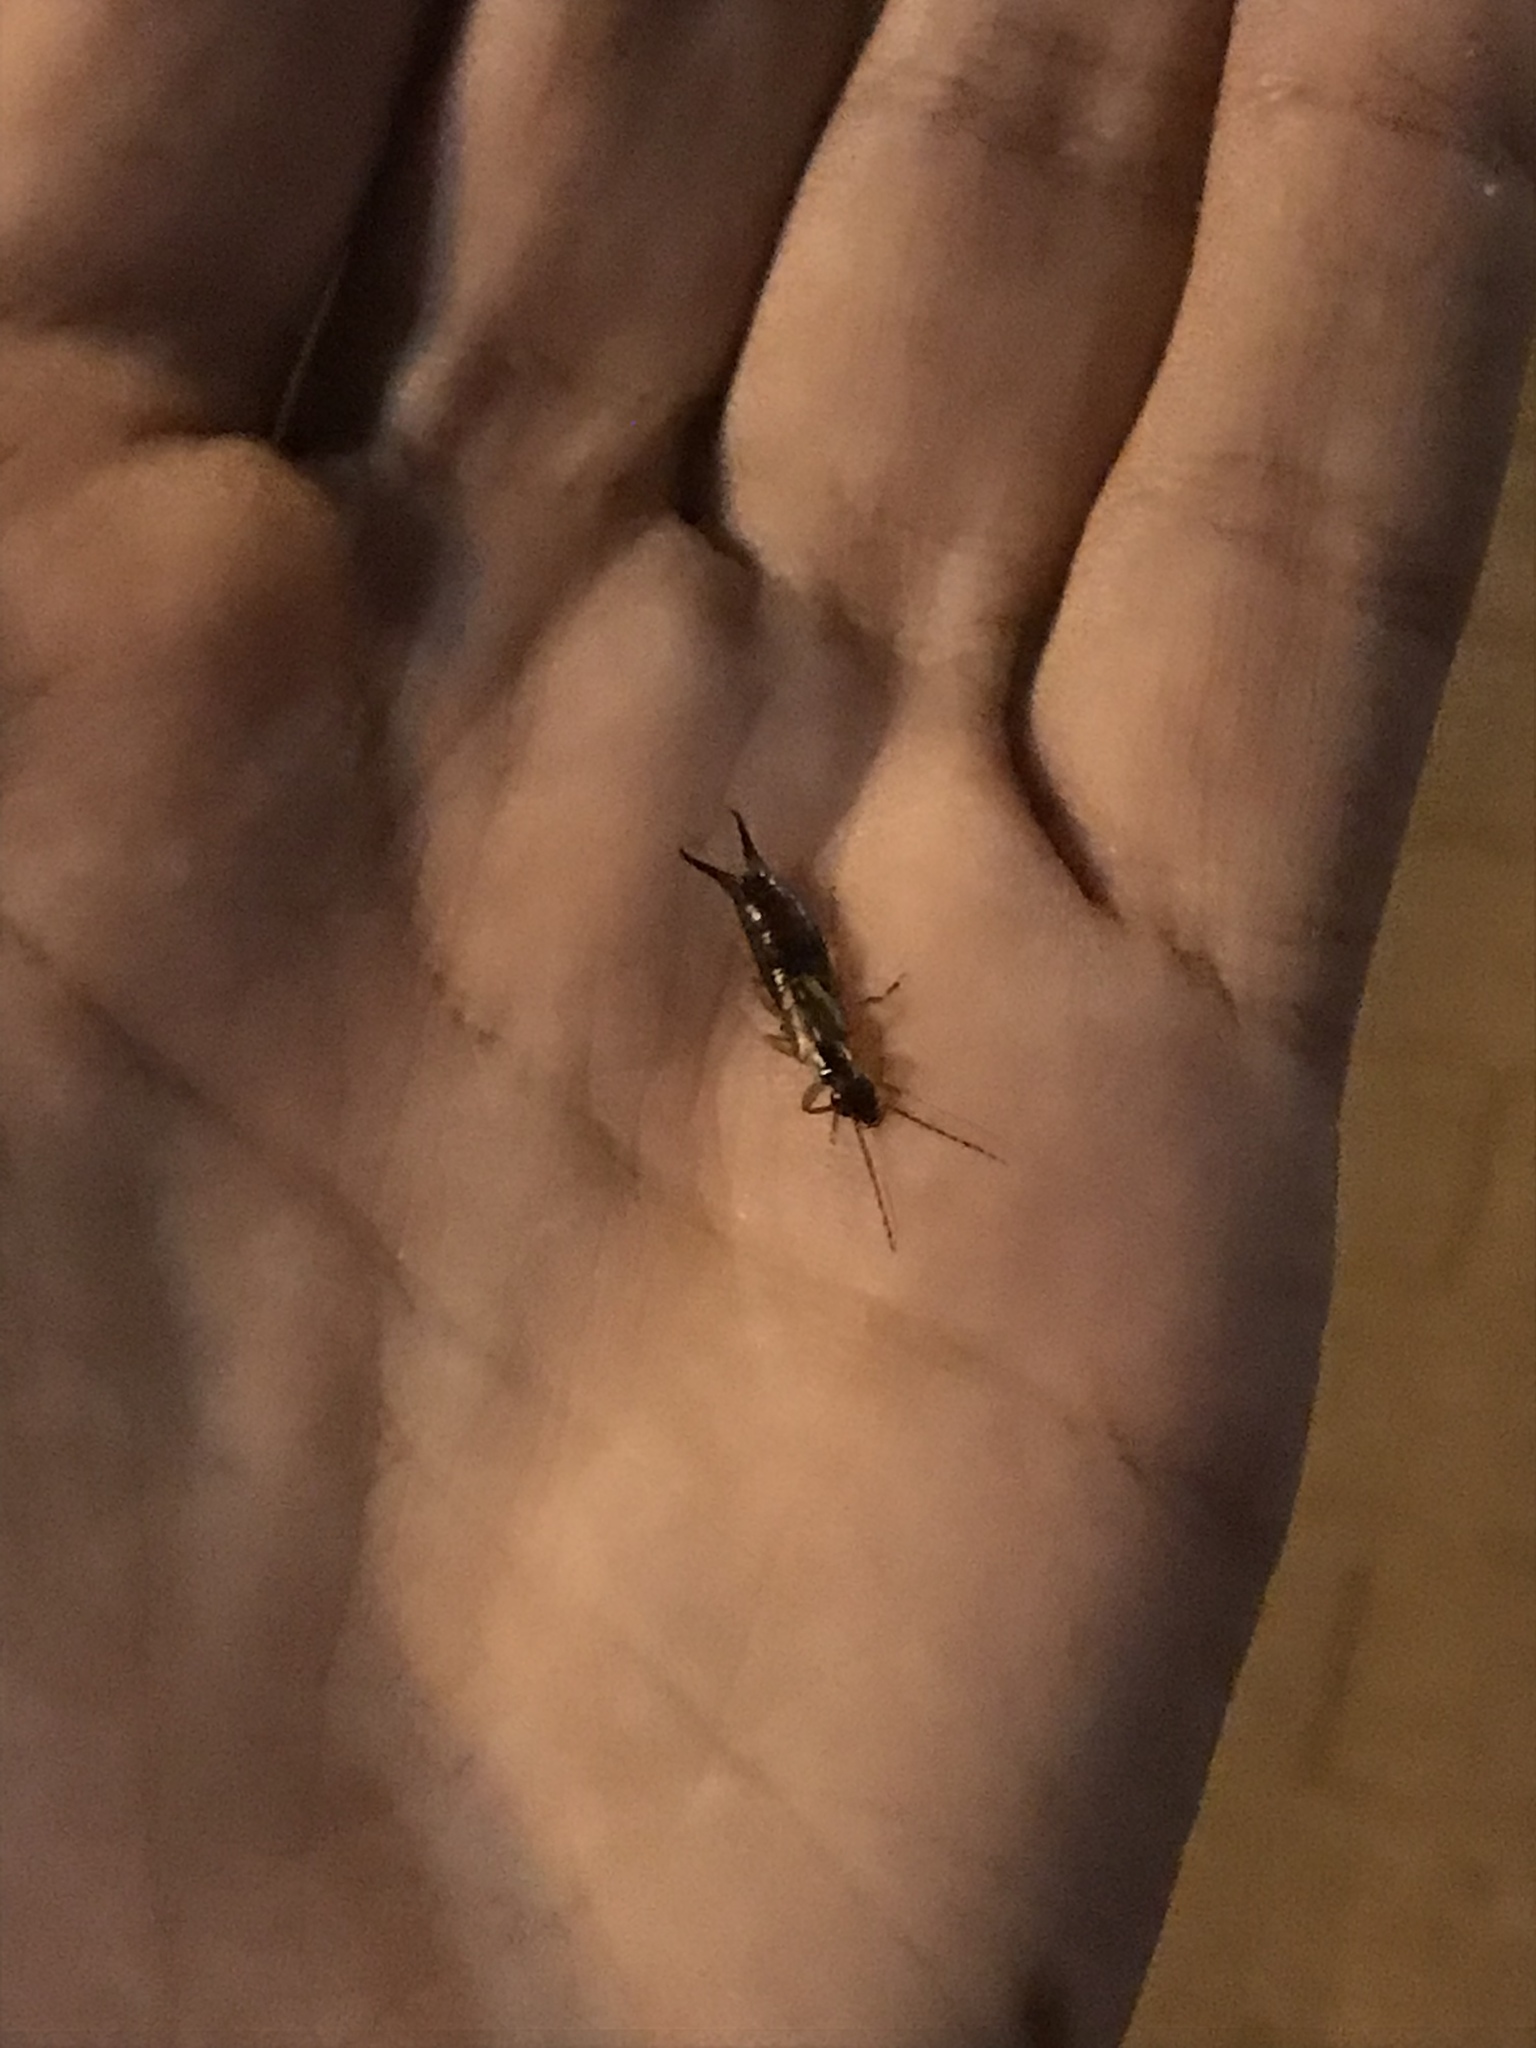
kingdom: Animalia
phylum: Arthropoda
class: Insecta
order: Dermaptera
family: Forficulidae
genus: Forficula
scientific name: Forficula
